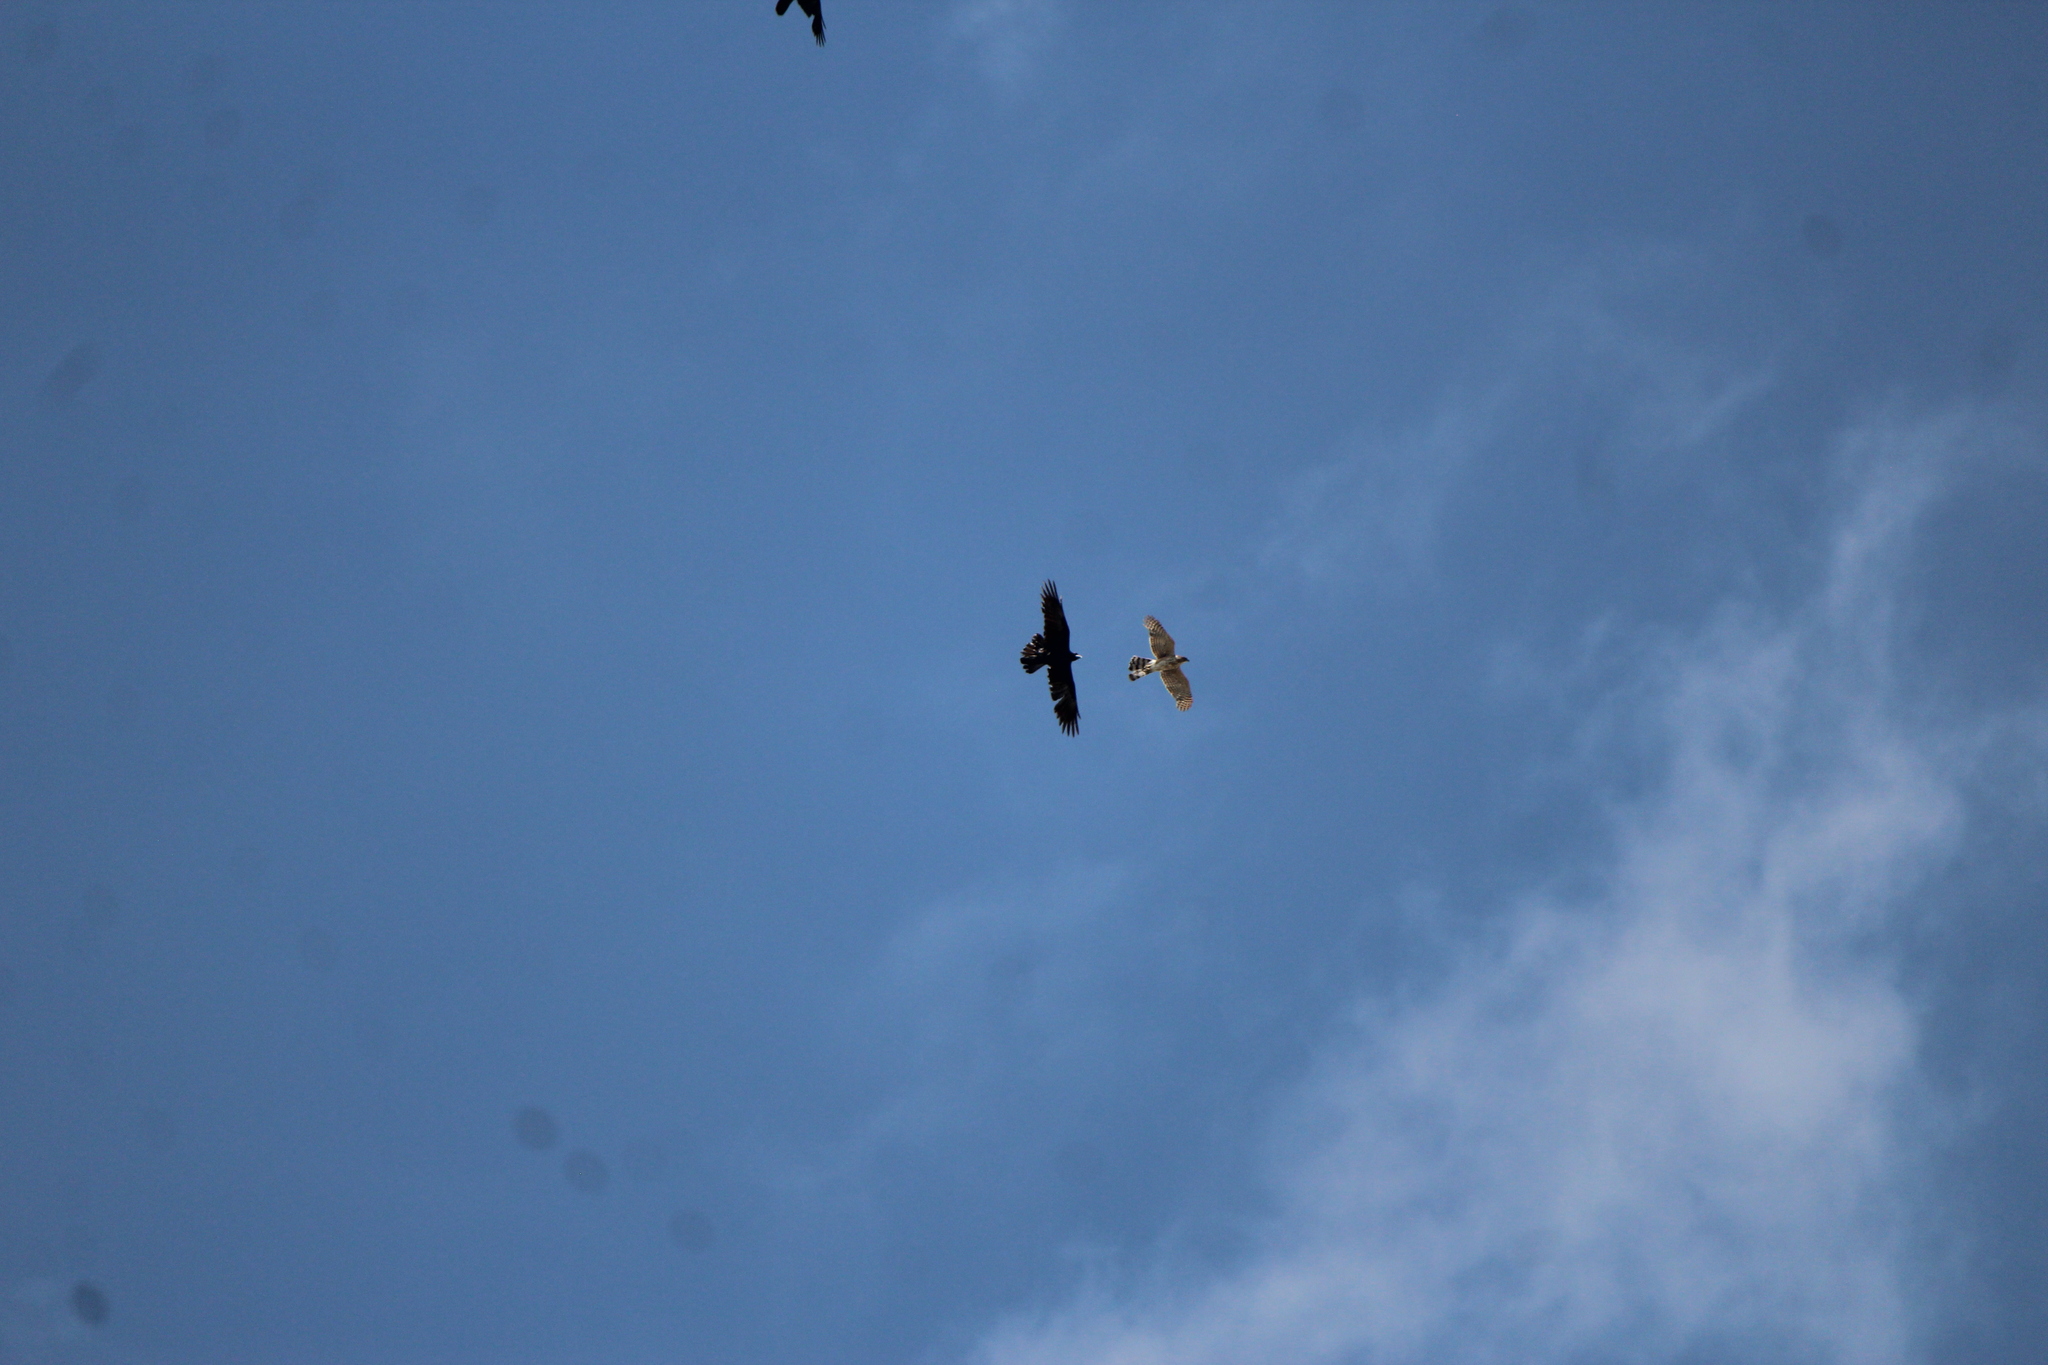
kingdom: Animalia
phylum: Chordata
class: Aves
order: Passeriformes
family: Corvidae
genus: Corvus
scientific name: Corvus corax
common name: Common raven
